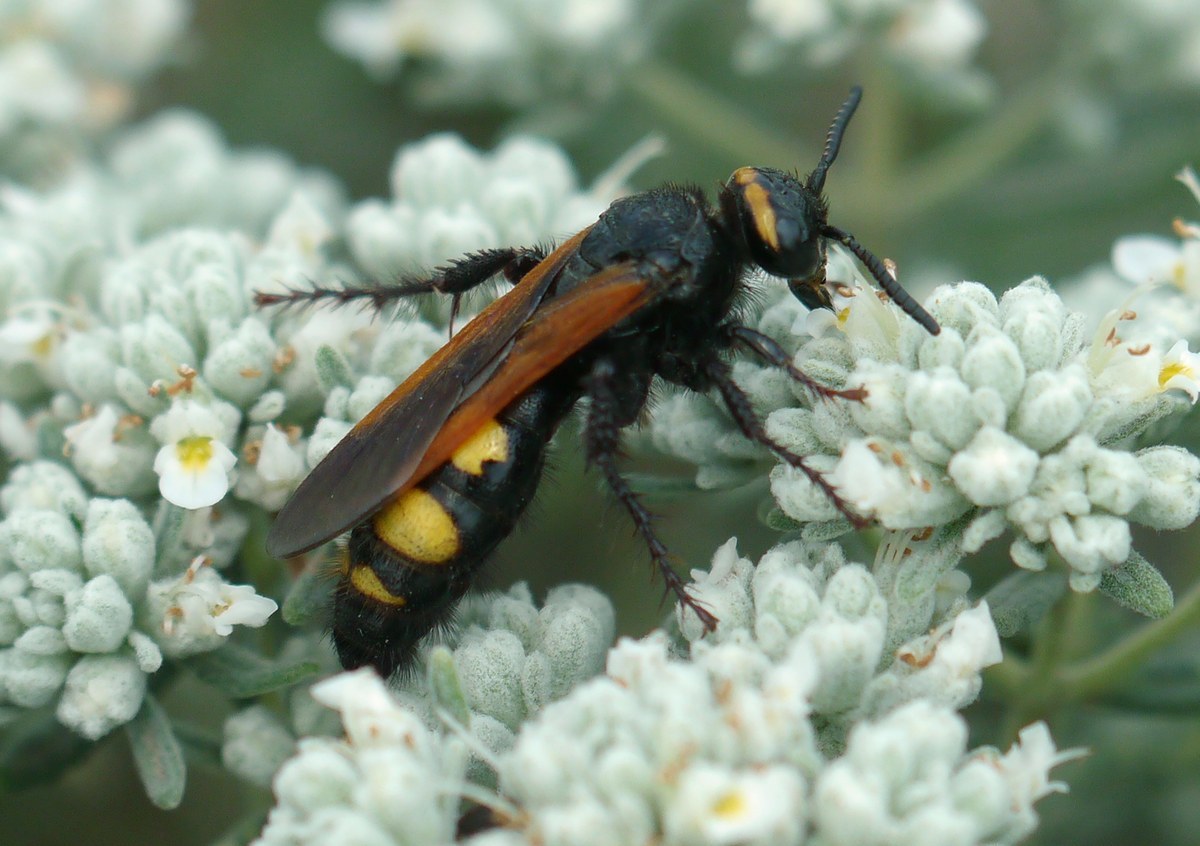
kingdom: Animalia
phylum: Arthropoda
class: Insecta
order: Hymenoptera
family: Scoliidae
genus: Scolia
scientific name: Scolia fuciformis
